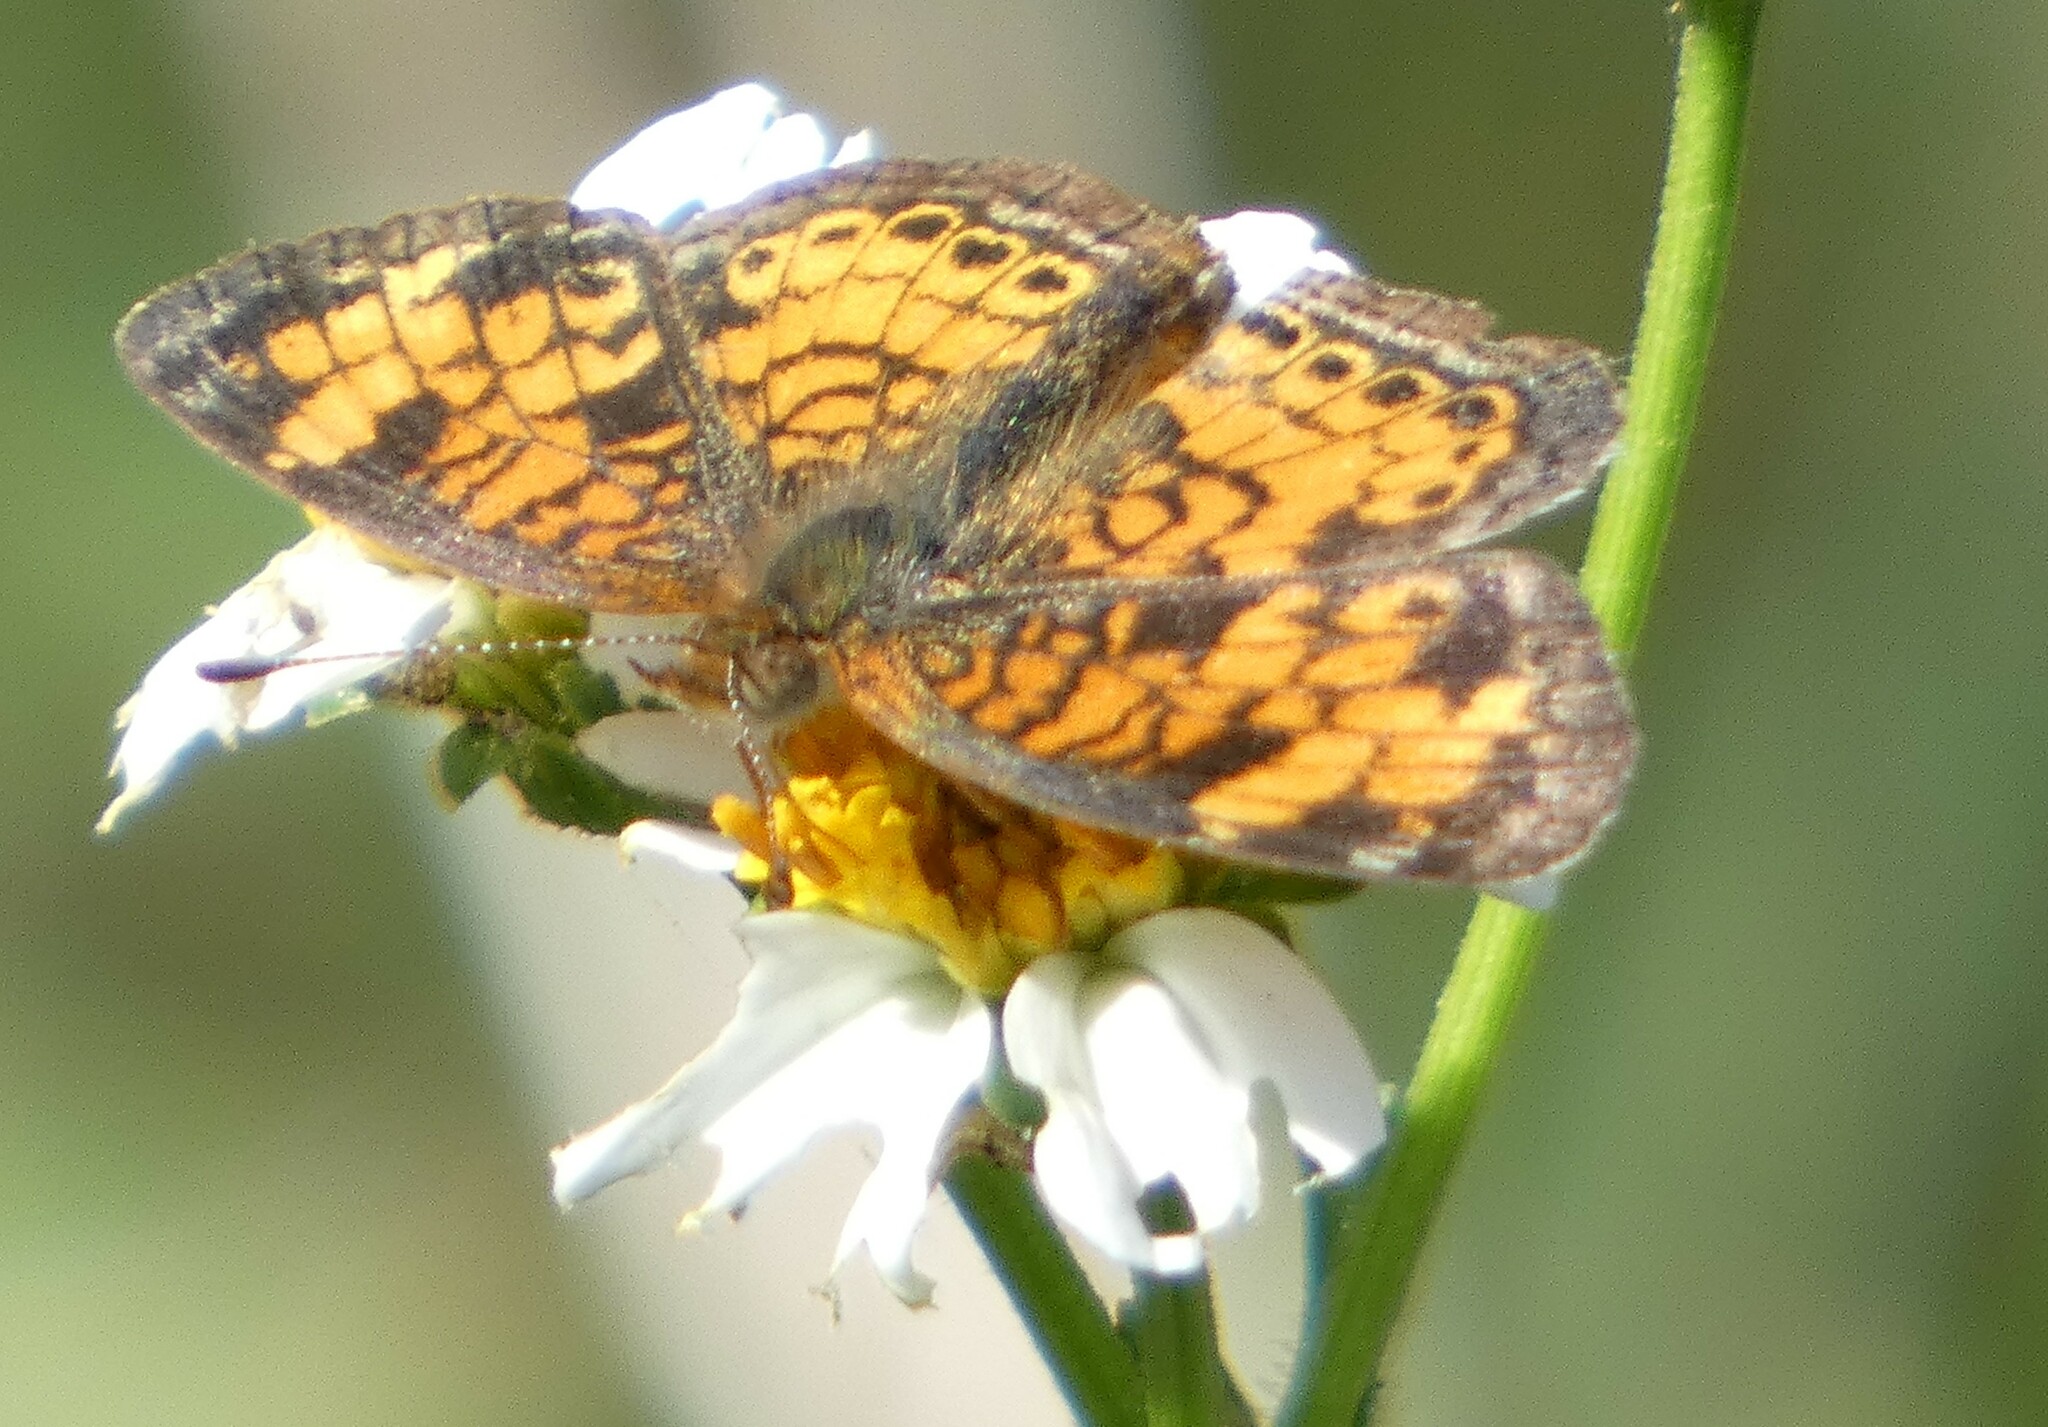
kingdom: Animalia
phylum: Arthropoda
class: Insecta
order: Lepidoptera
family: Nymphalidae
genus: Phyciodes
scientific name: Phyciodes tharos
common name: Pearl crescent
